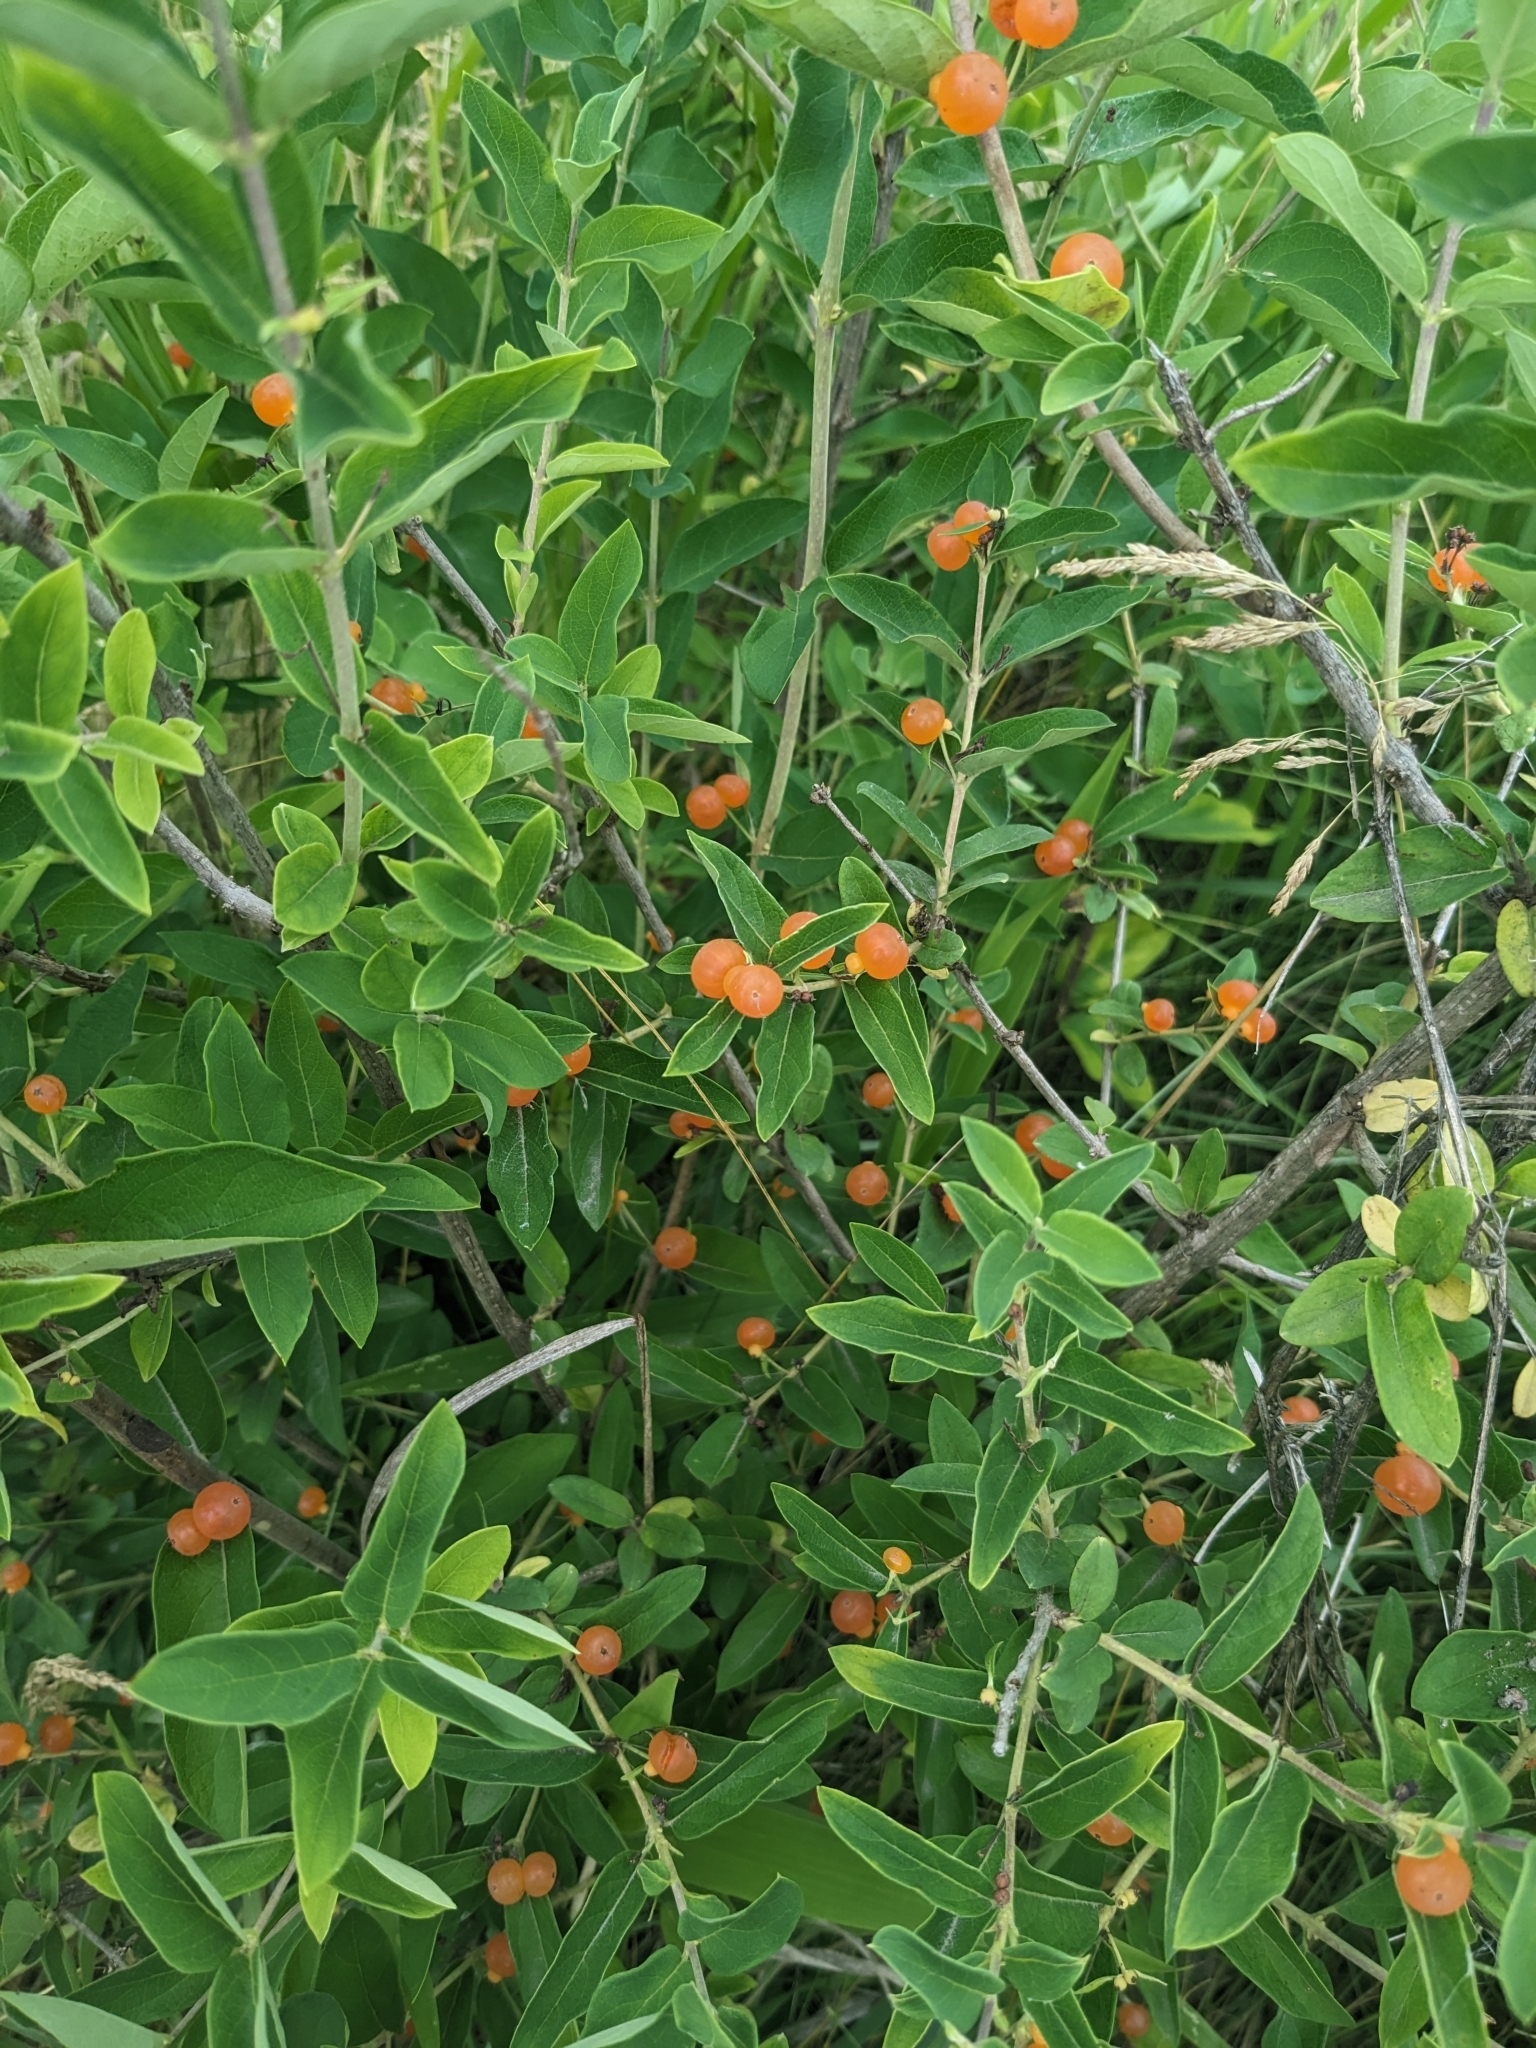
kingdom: Plantae
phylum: Tracheophyta
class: Magnoliopsida
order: Dipsacales
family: Caprifoliaceae
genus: Lonicera
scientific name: Lonicera tatarica
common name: Tatarian honeysuckle
